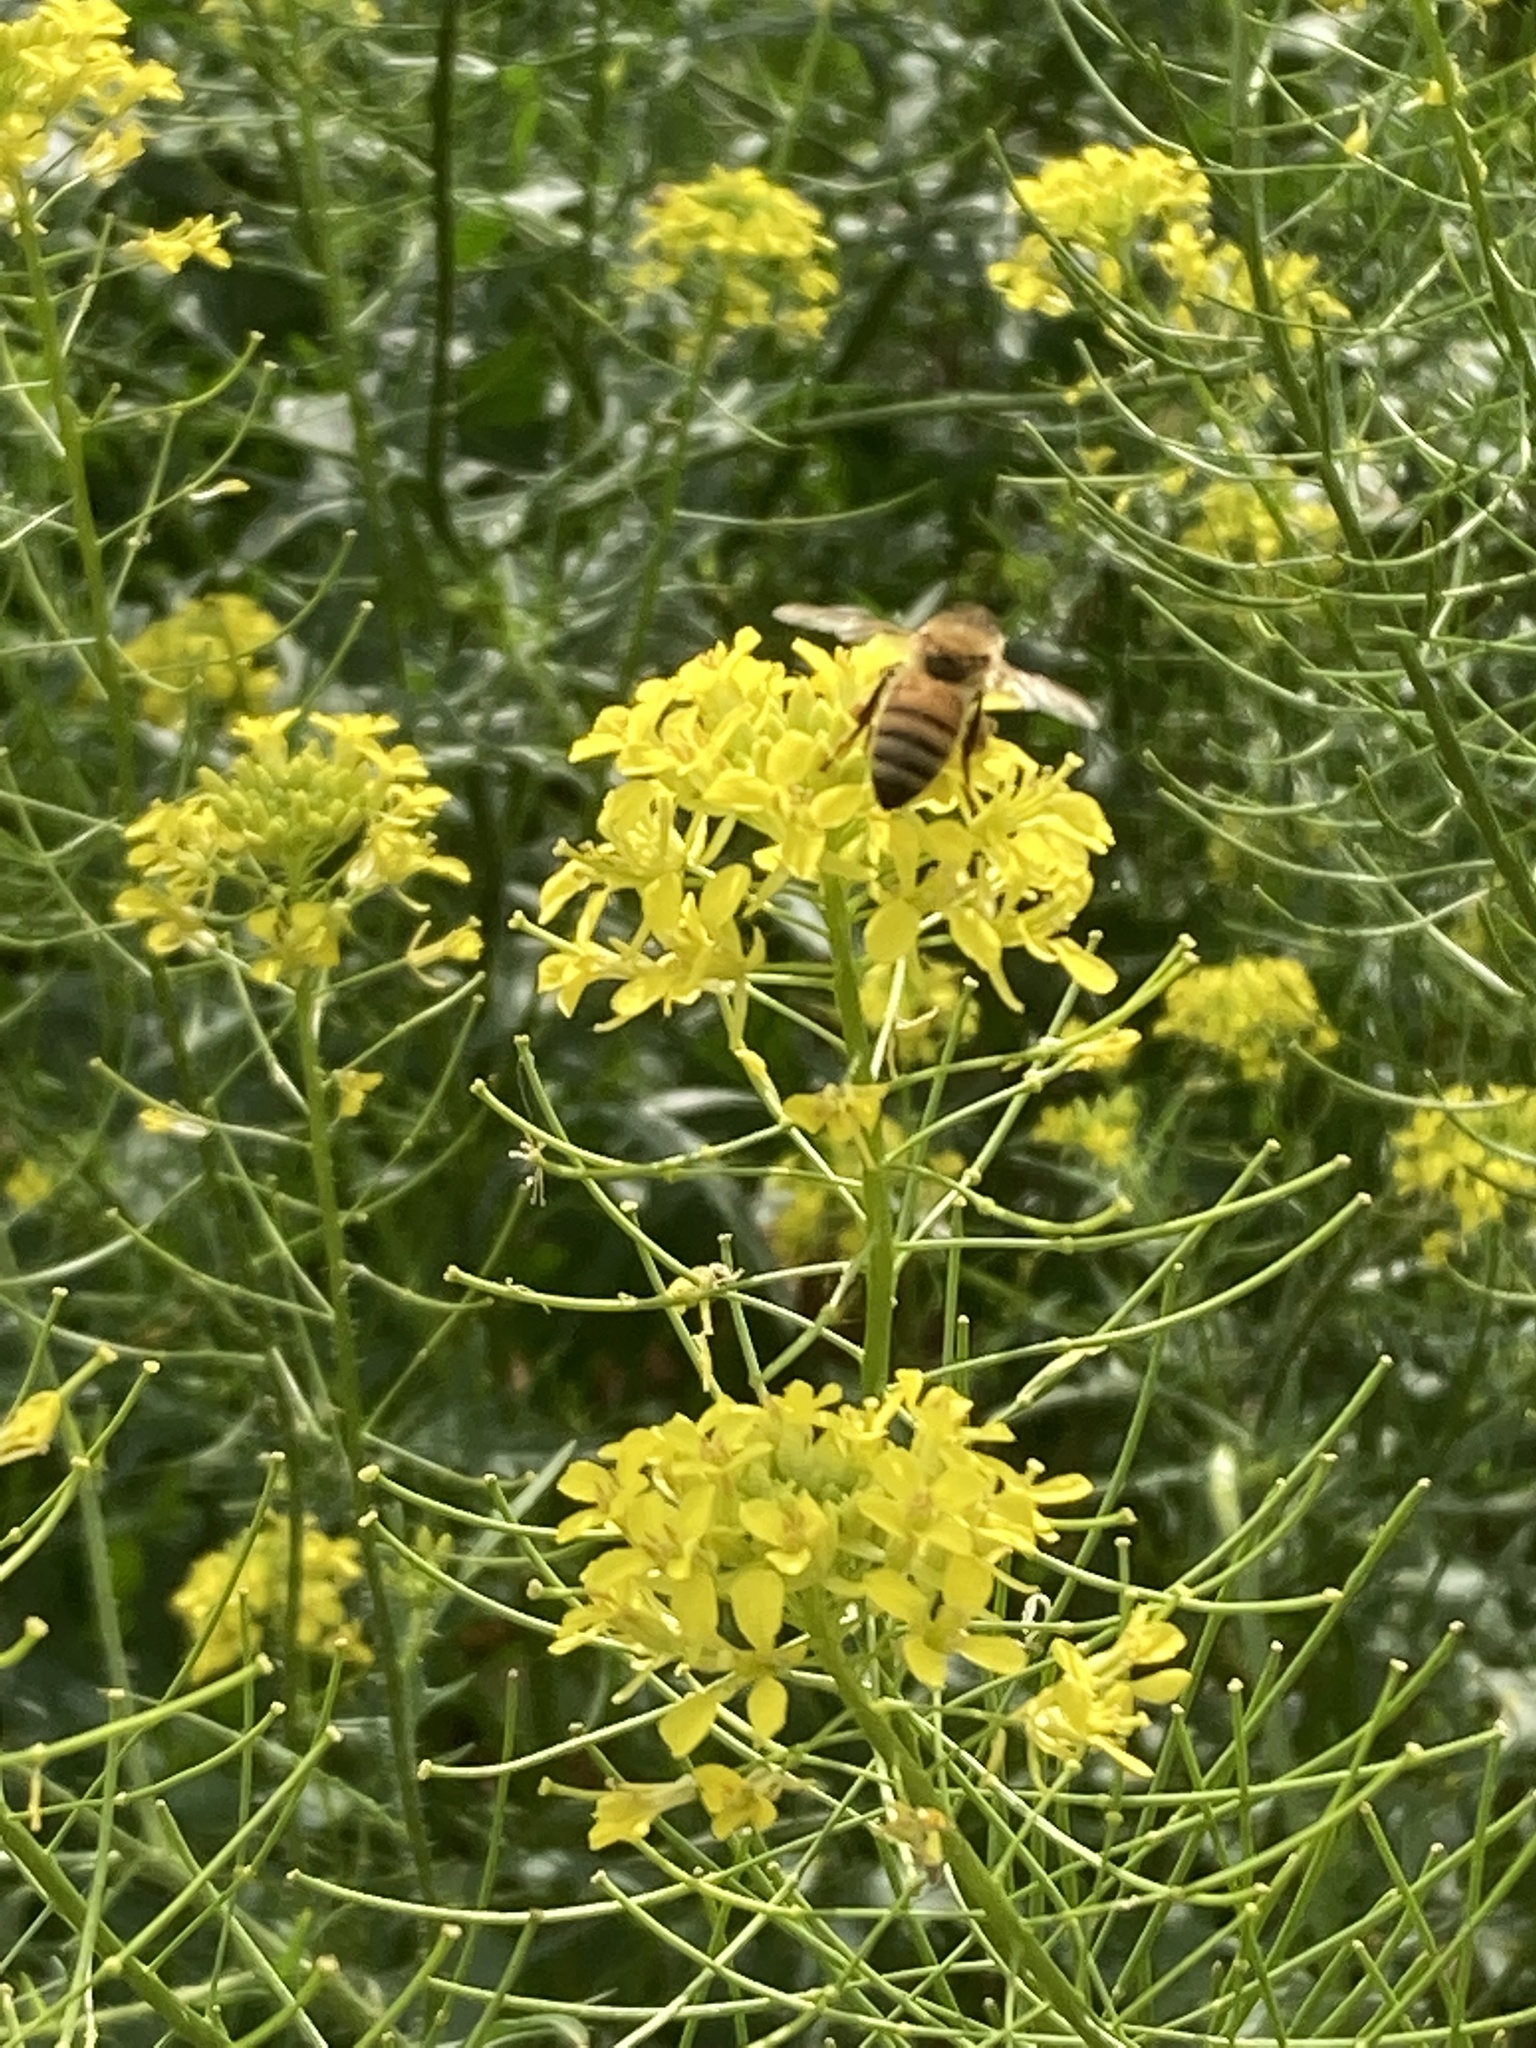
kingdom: Animalia
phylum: Arthropoda
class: Insecta
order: Hymenoptera
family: Apidae
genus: Apis
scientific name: Apis mellifera
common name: Honey bee
